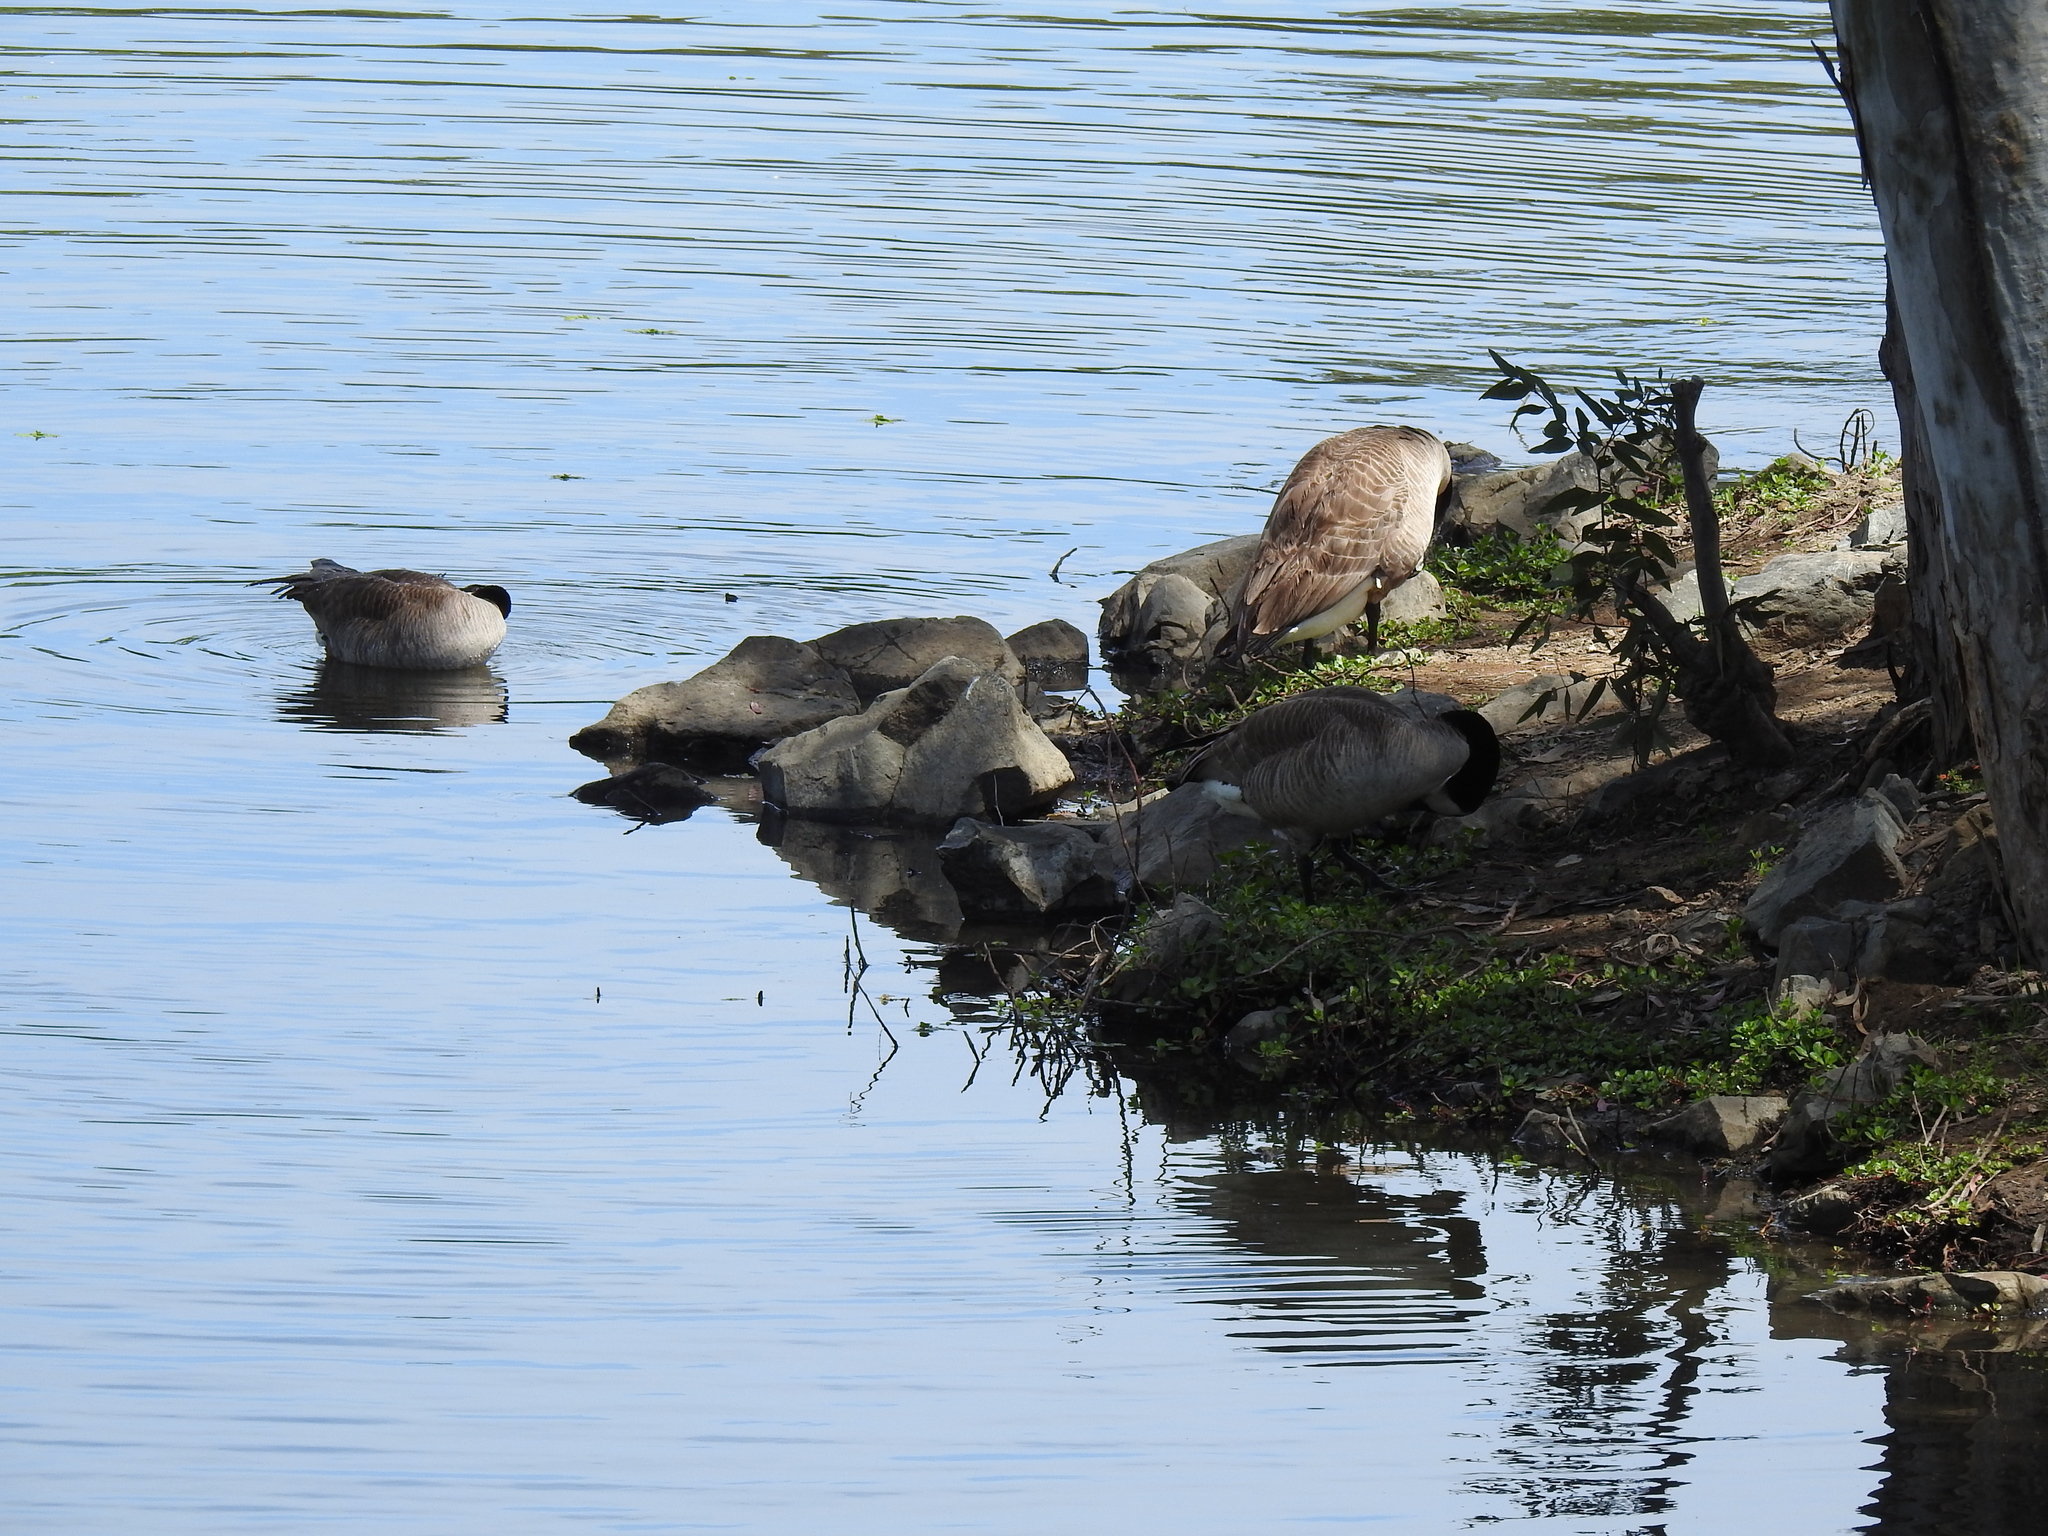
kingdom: Animalia
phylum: Chordata
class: Aves
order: Anseriformes
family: Anatidae
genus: Branta
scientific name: Branta canadensis
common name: Canada goose
